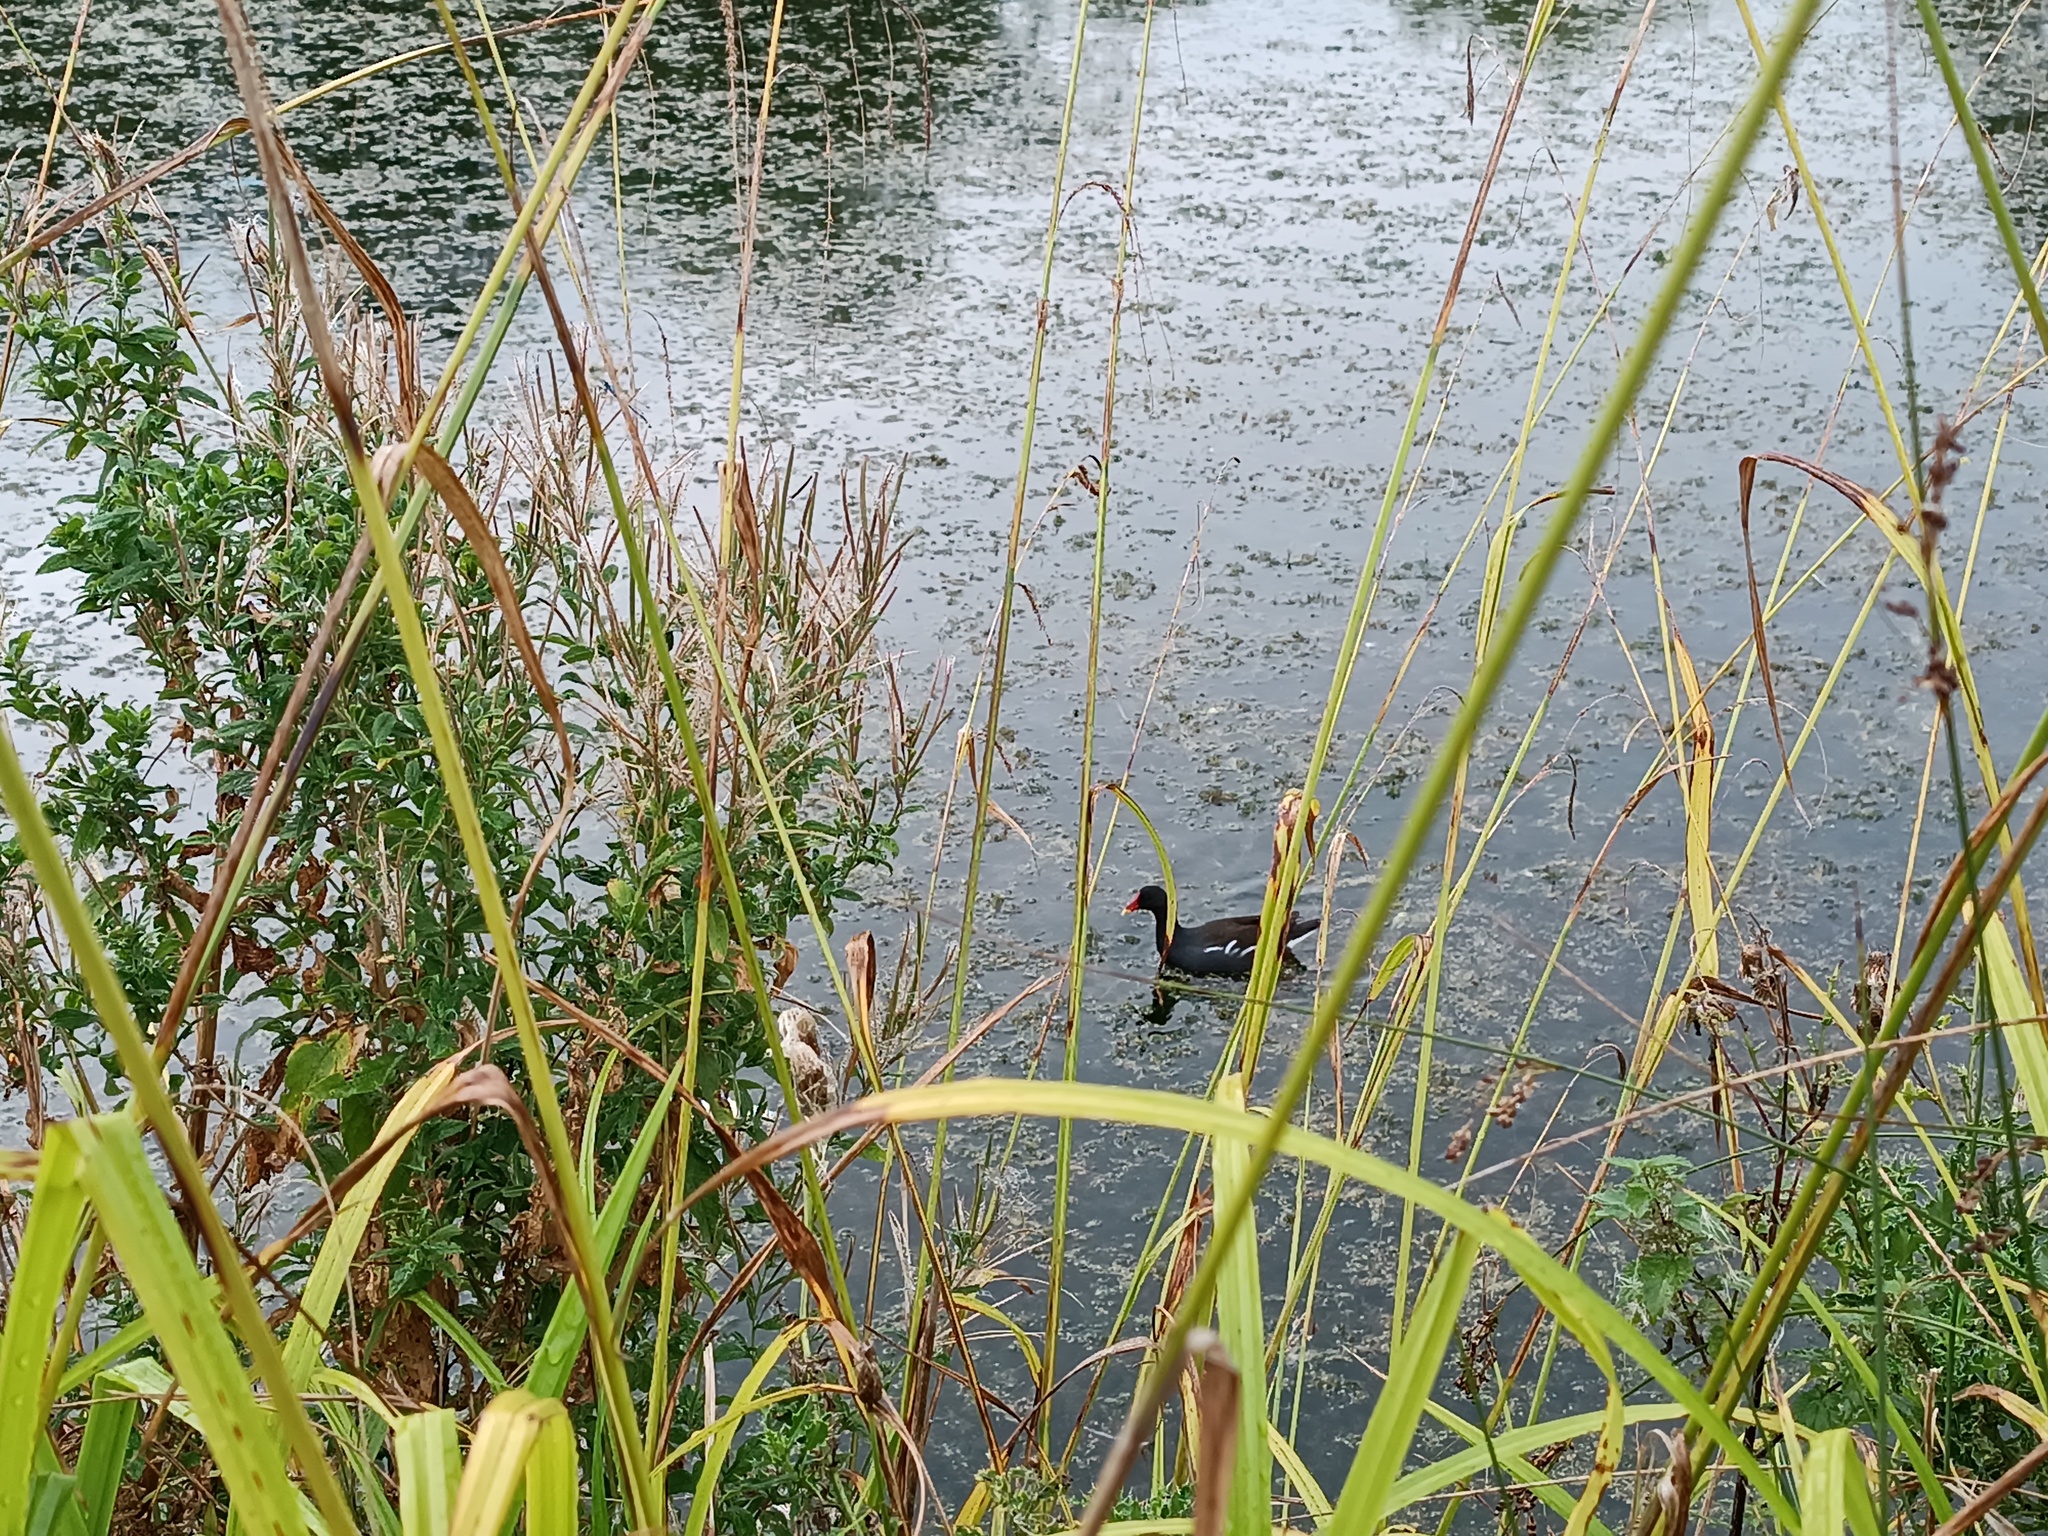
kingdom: Animalia
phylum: Chordata
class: Aves
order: Gruiformes
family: Rallidae
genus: Gallinula
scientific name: Gallinula chloropus
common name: Common moorhen
